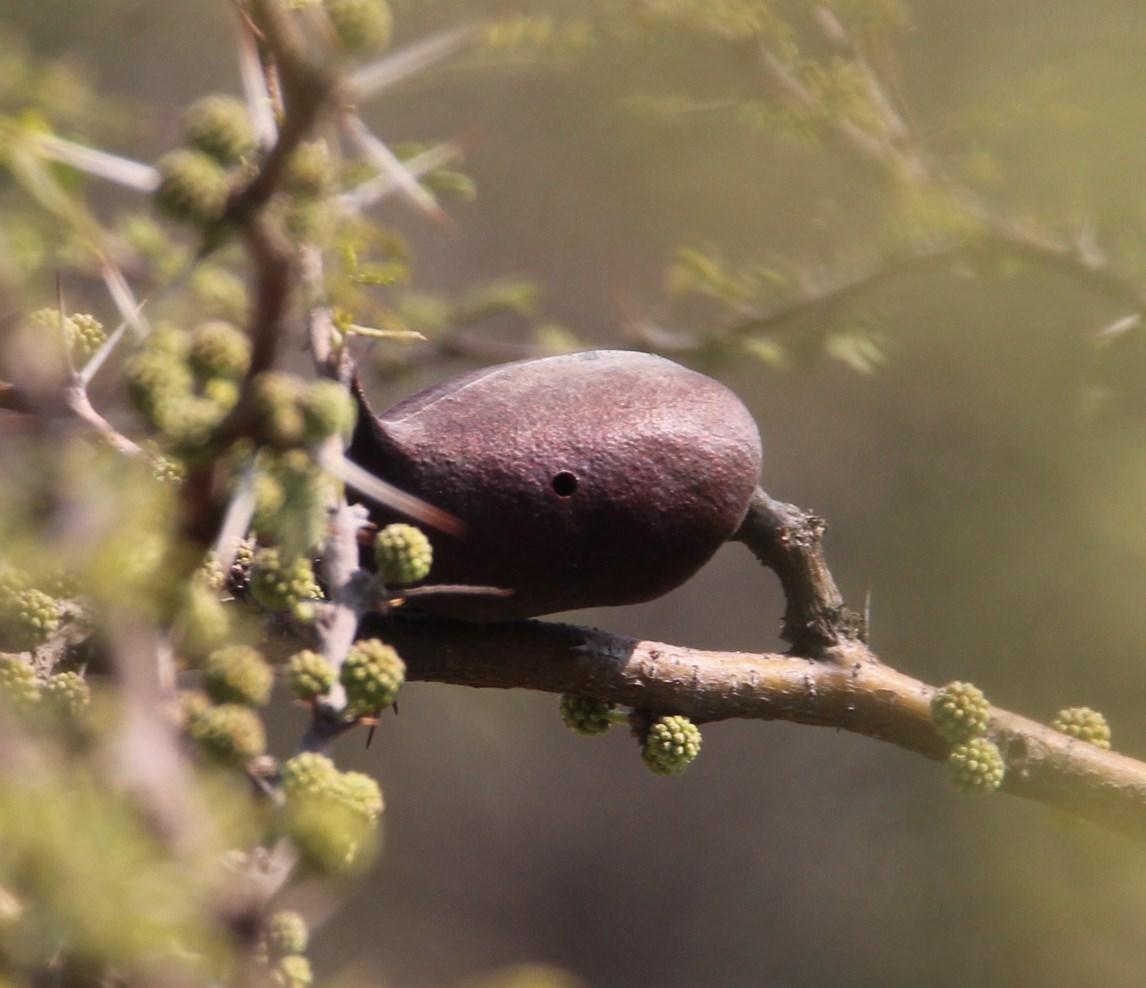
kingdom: Plantae
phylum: Tracheophyta
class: Magnoliopsida
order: Fabales
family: Fabaceae
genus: Vachellia
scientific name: Vachellia caven
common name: Roman cassie
